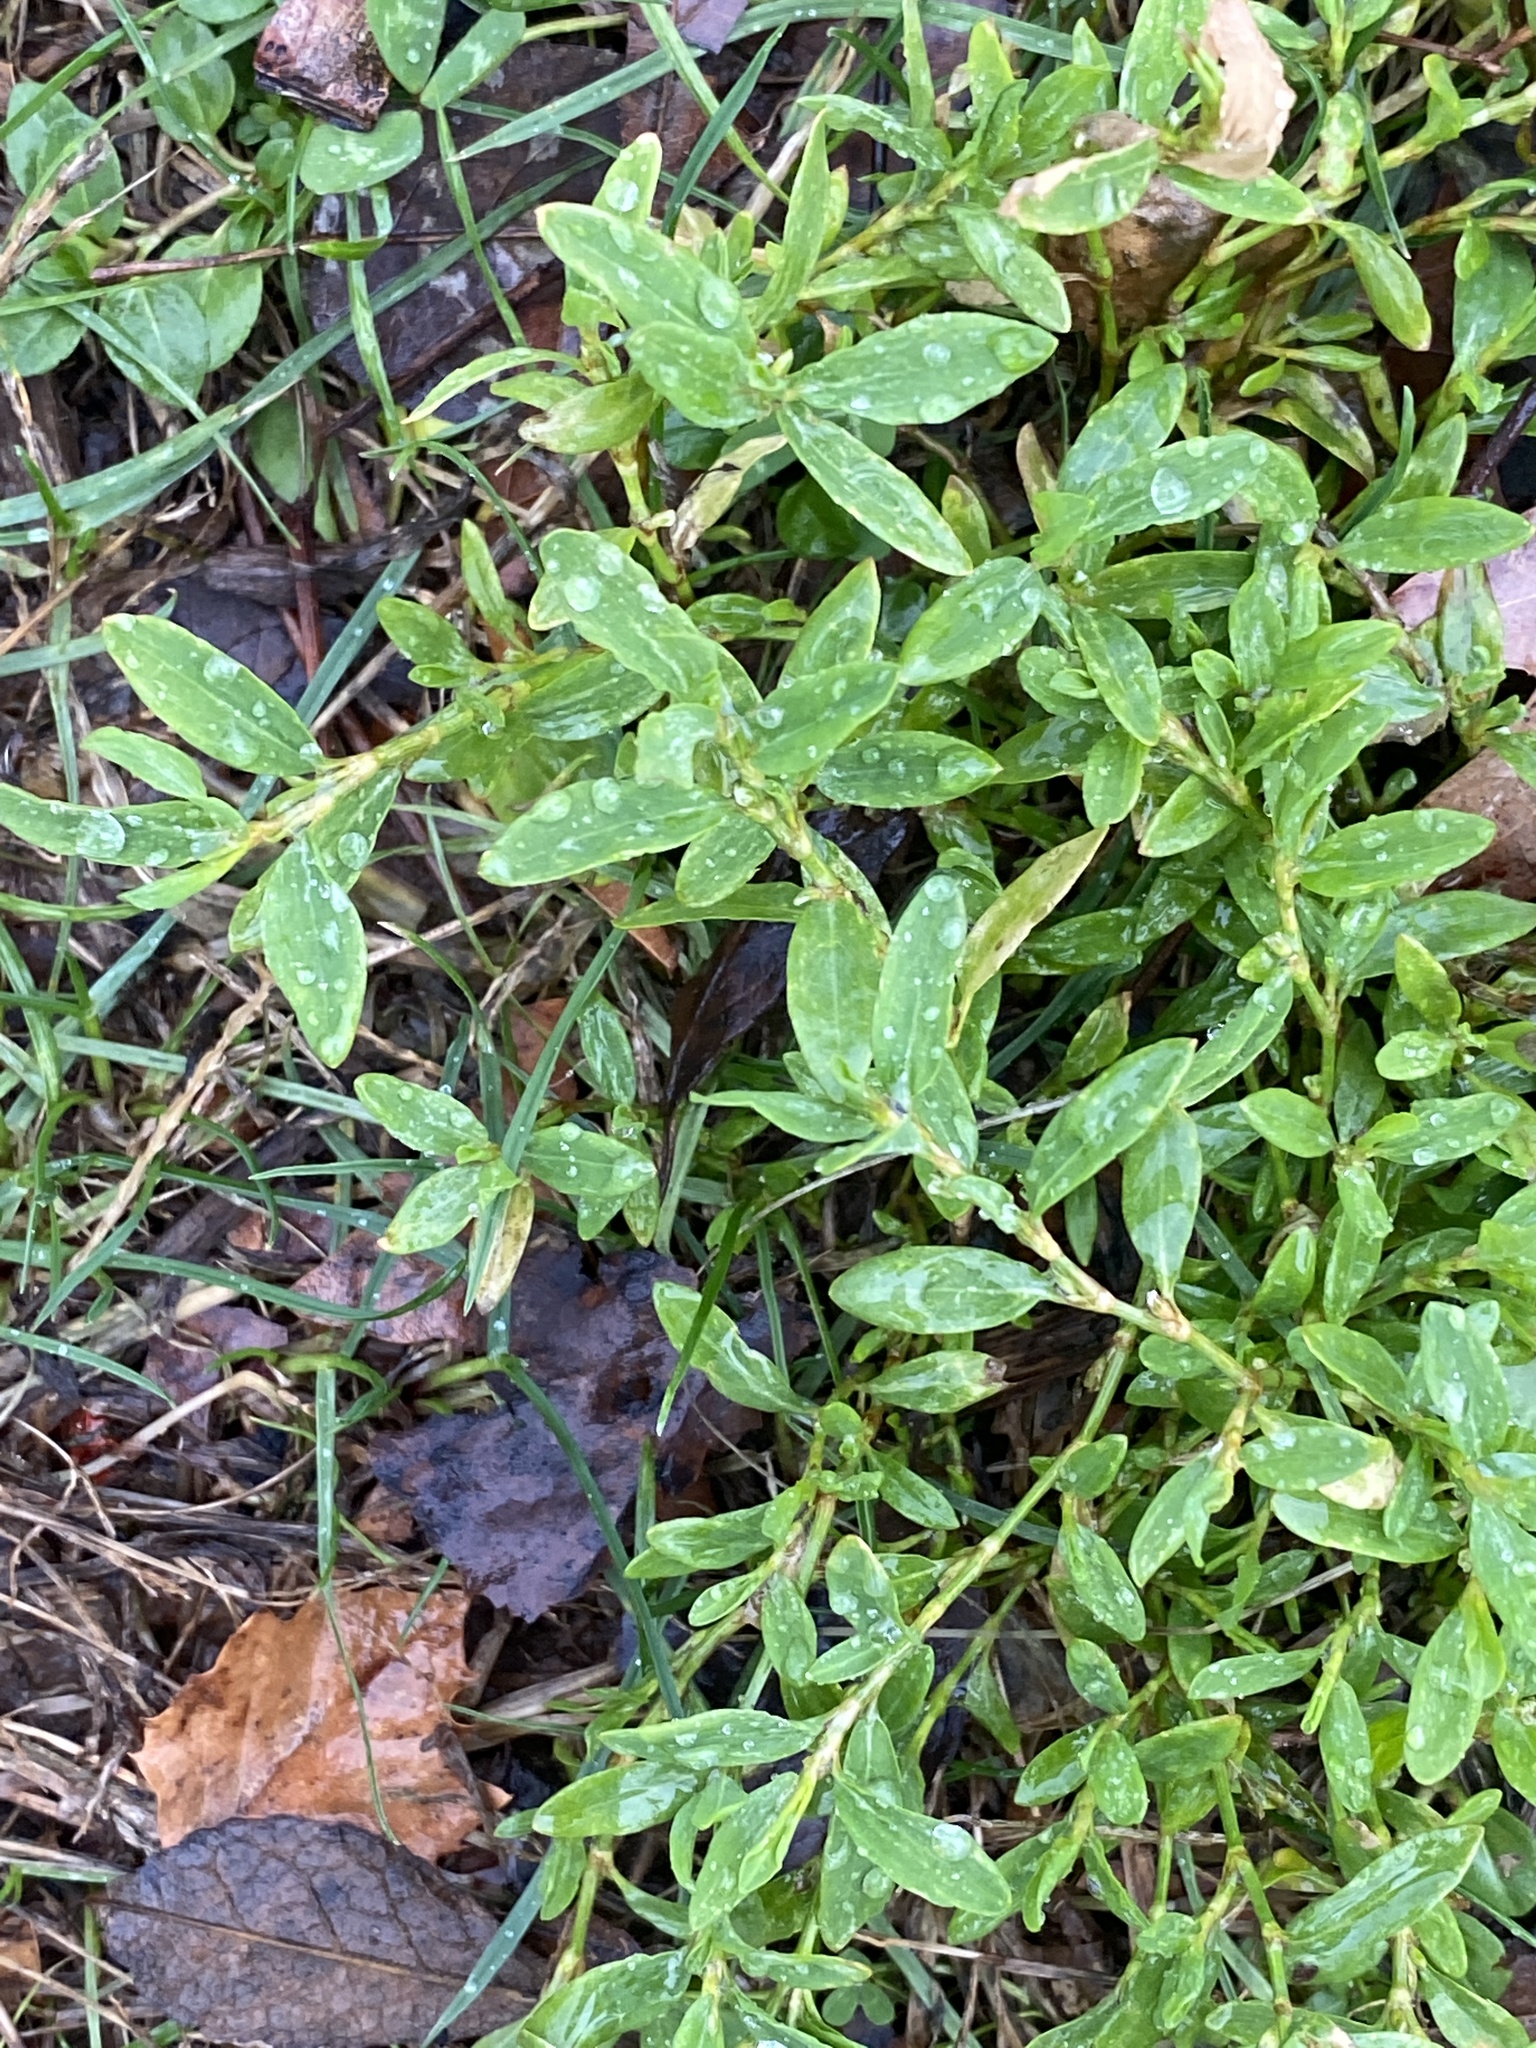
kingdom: Plantae
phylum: Tracheophyta
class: Magnoliopsida
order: Caryophyllales
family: Polygonaceae
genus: Polygonum
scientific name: Polygonum aviculare
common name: Prostrate knotweed
